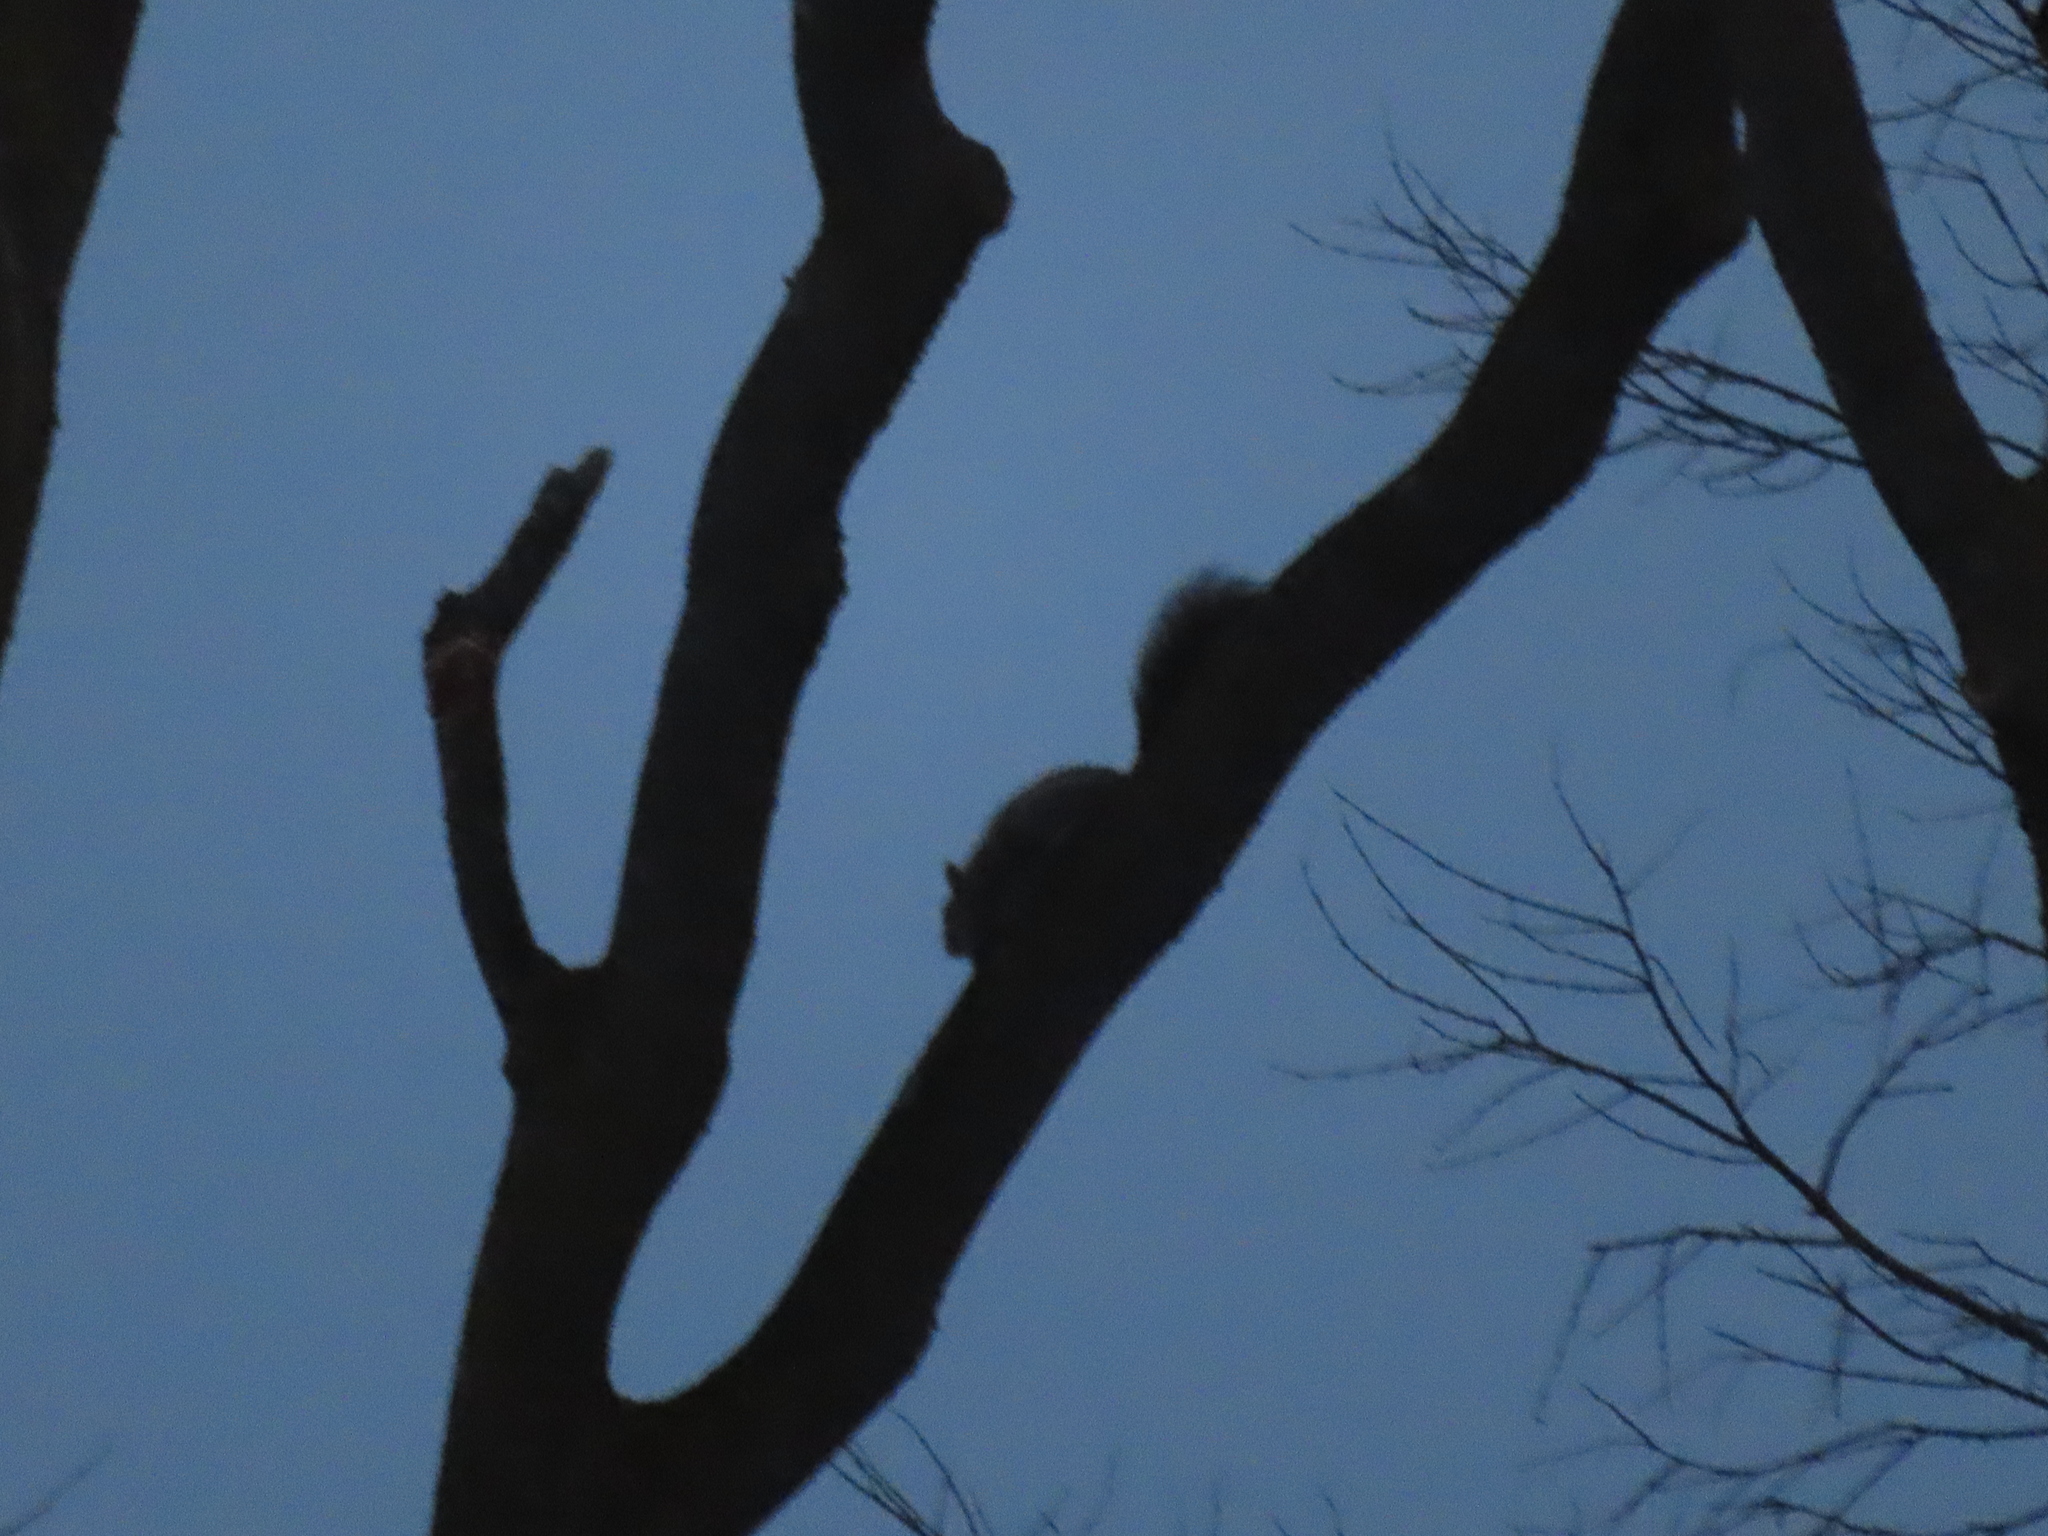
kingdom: Animalia
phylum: Chordata
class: Mammalia
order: Rodentia
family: Sciuridae
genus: Sciurus
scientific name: Sciurus carolinensis
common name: Eastern gray squirrel
